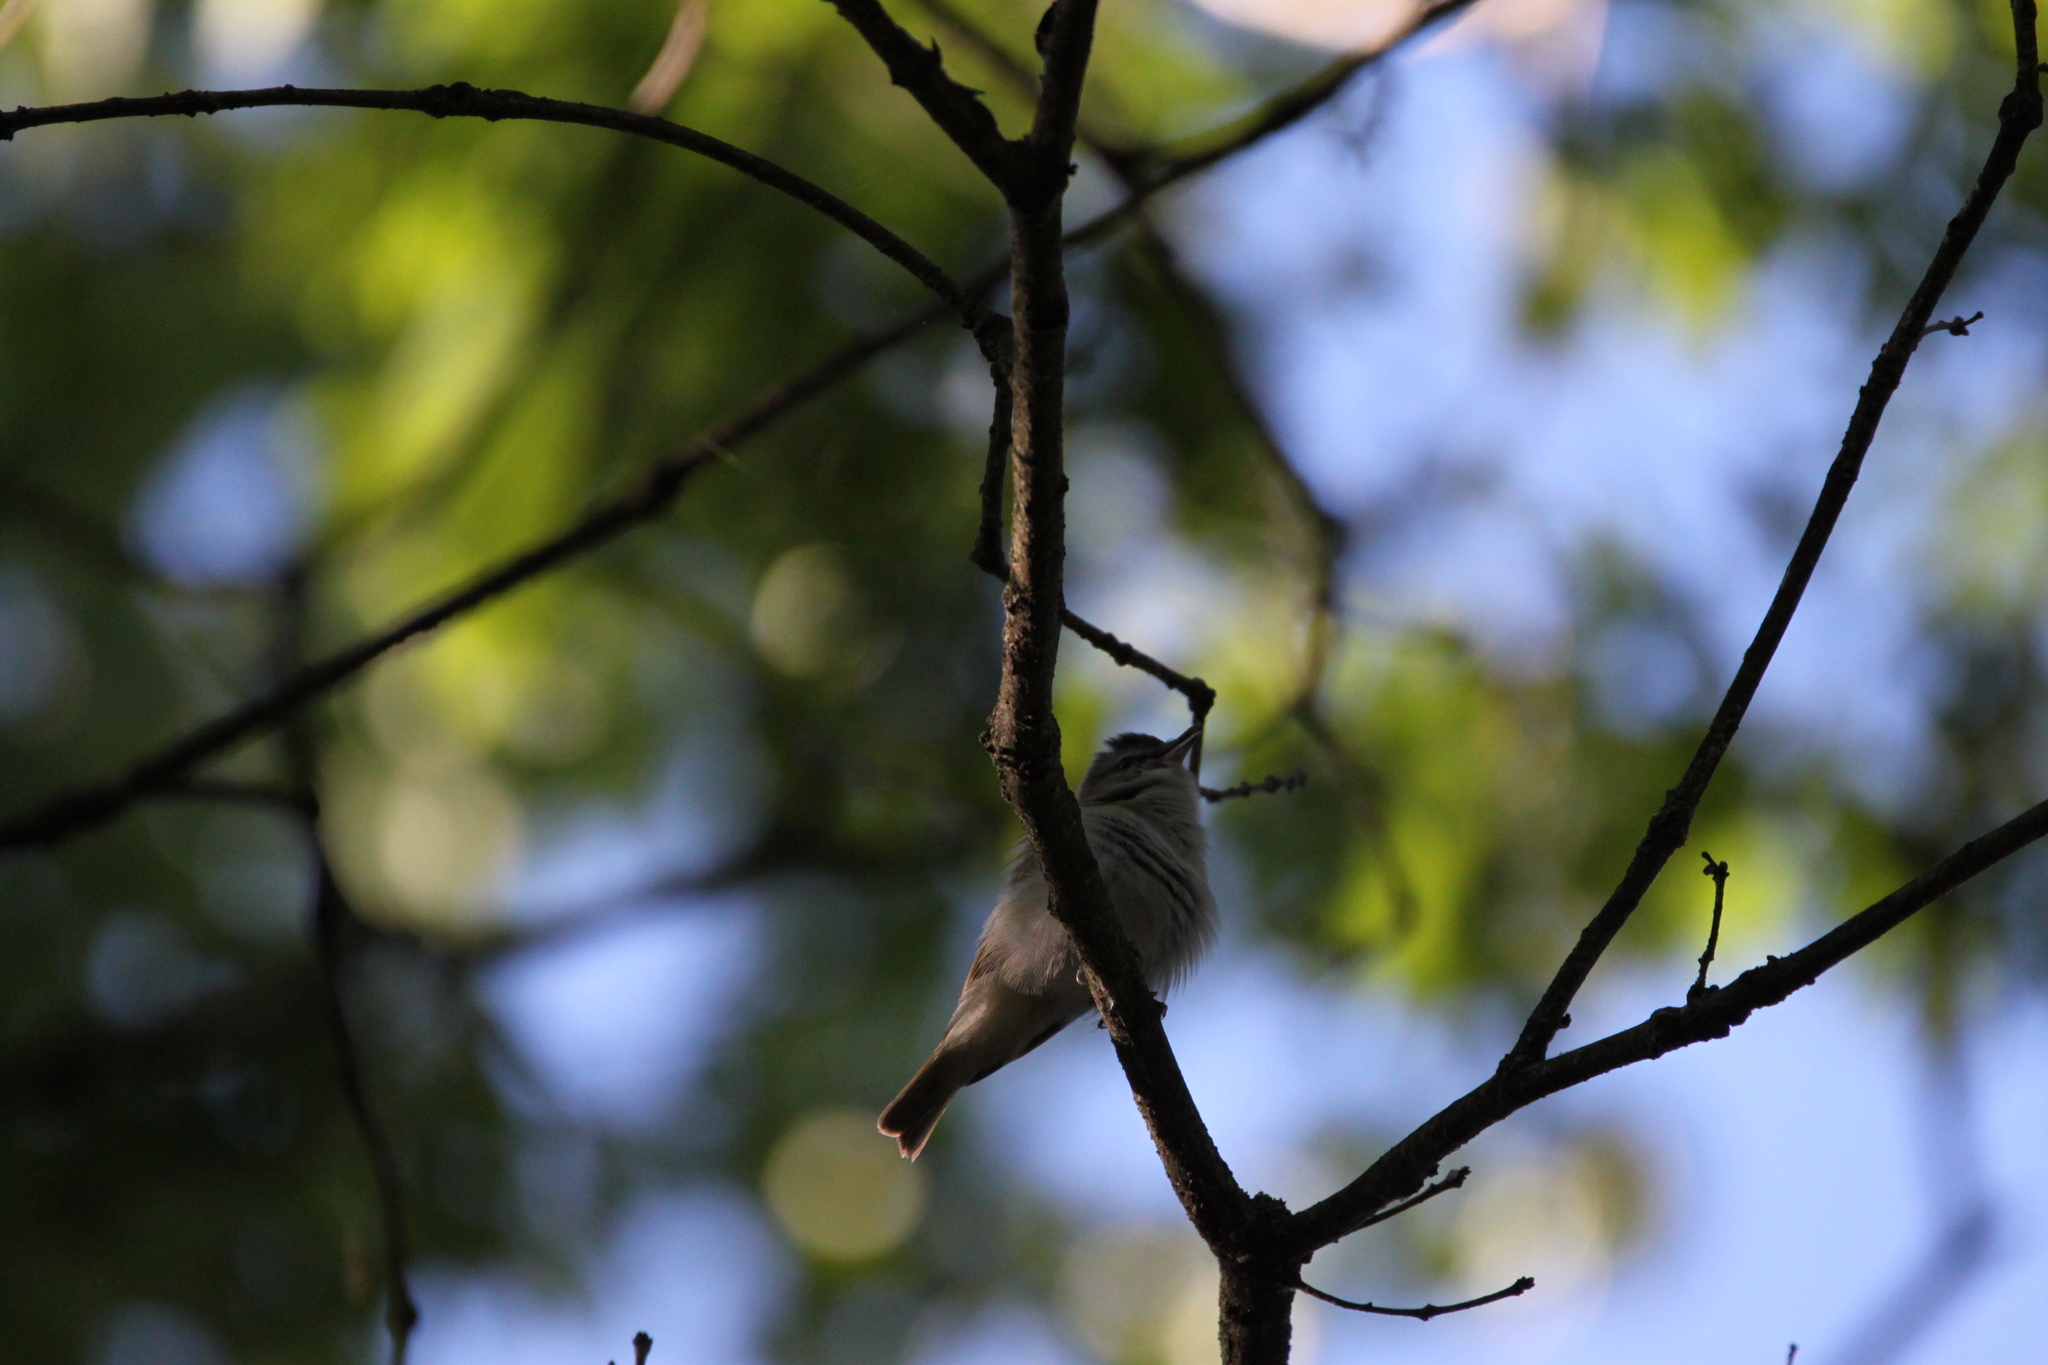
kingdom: Animalia
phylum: Chordata
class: Aves
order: Passeriformes
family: Vireonidae
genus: Vireo
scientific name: Vireo olivaceus
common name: Red-eyed vireo
